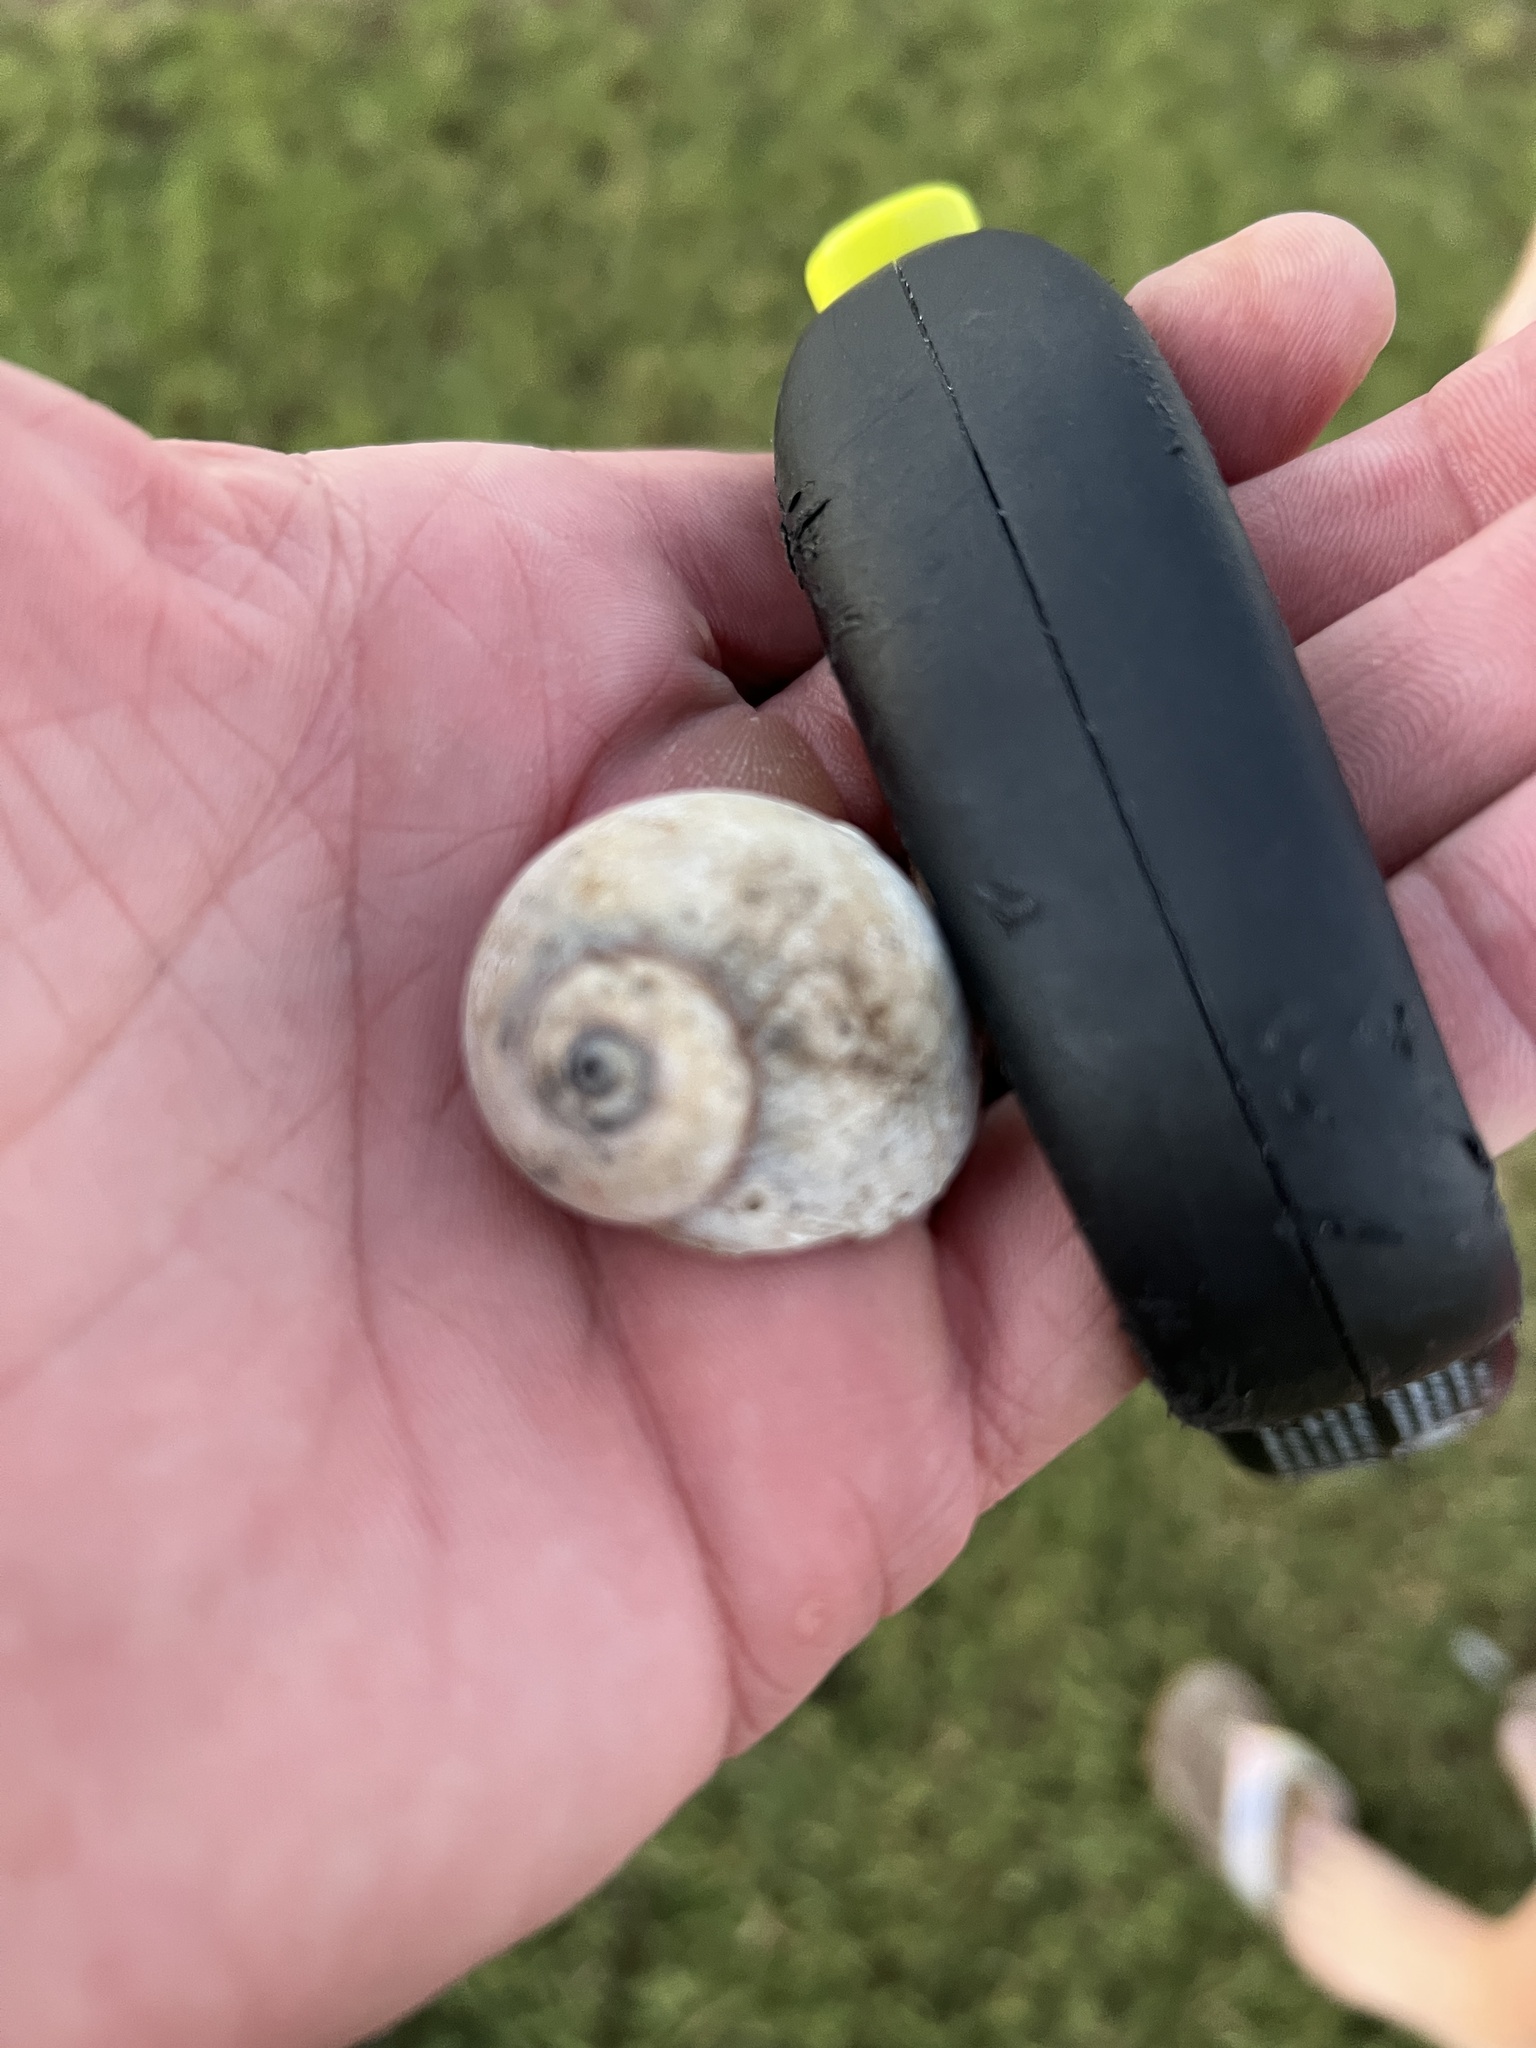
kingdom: Animalia
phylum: Mollusca
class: Gastropoda
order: Littorinimorpha
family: Naticidae
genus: Neverita
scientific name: Neverita delessertiana
